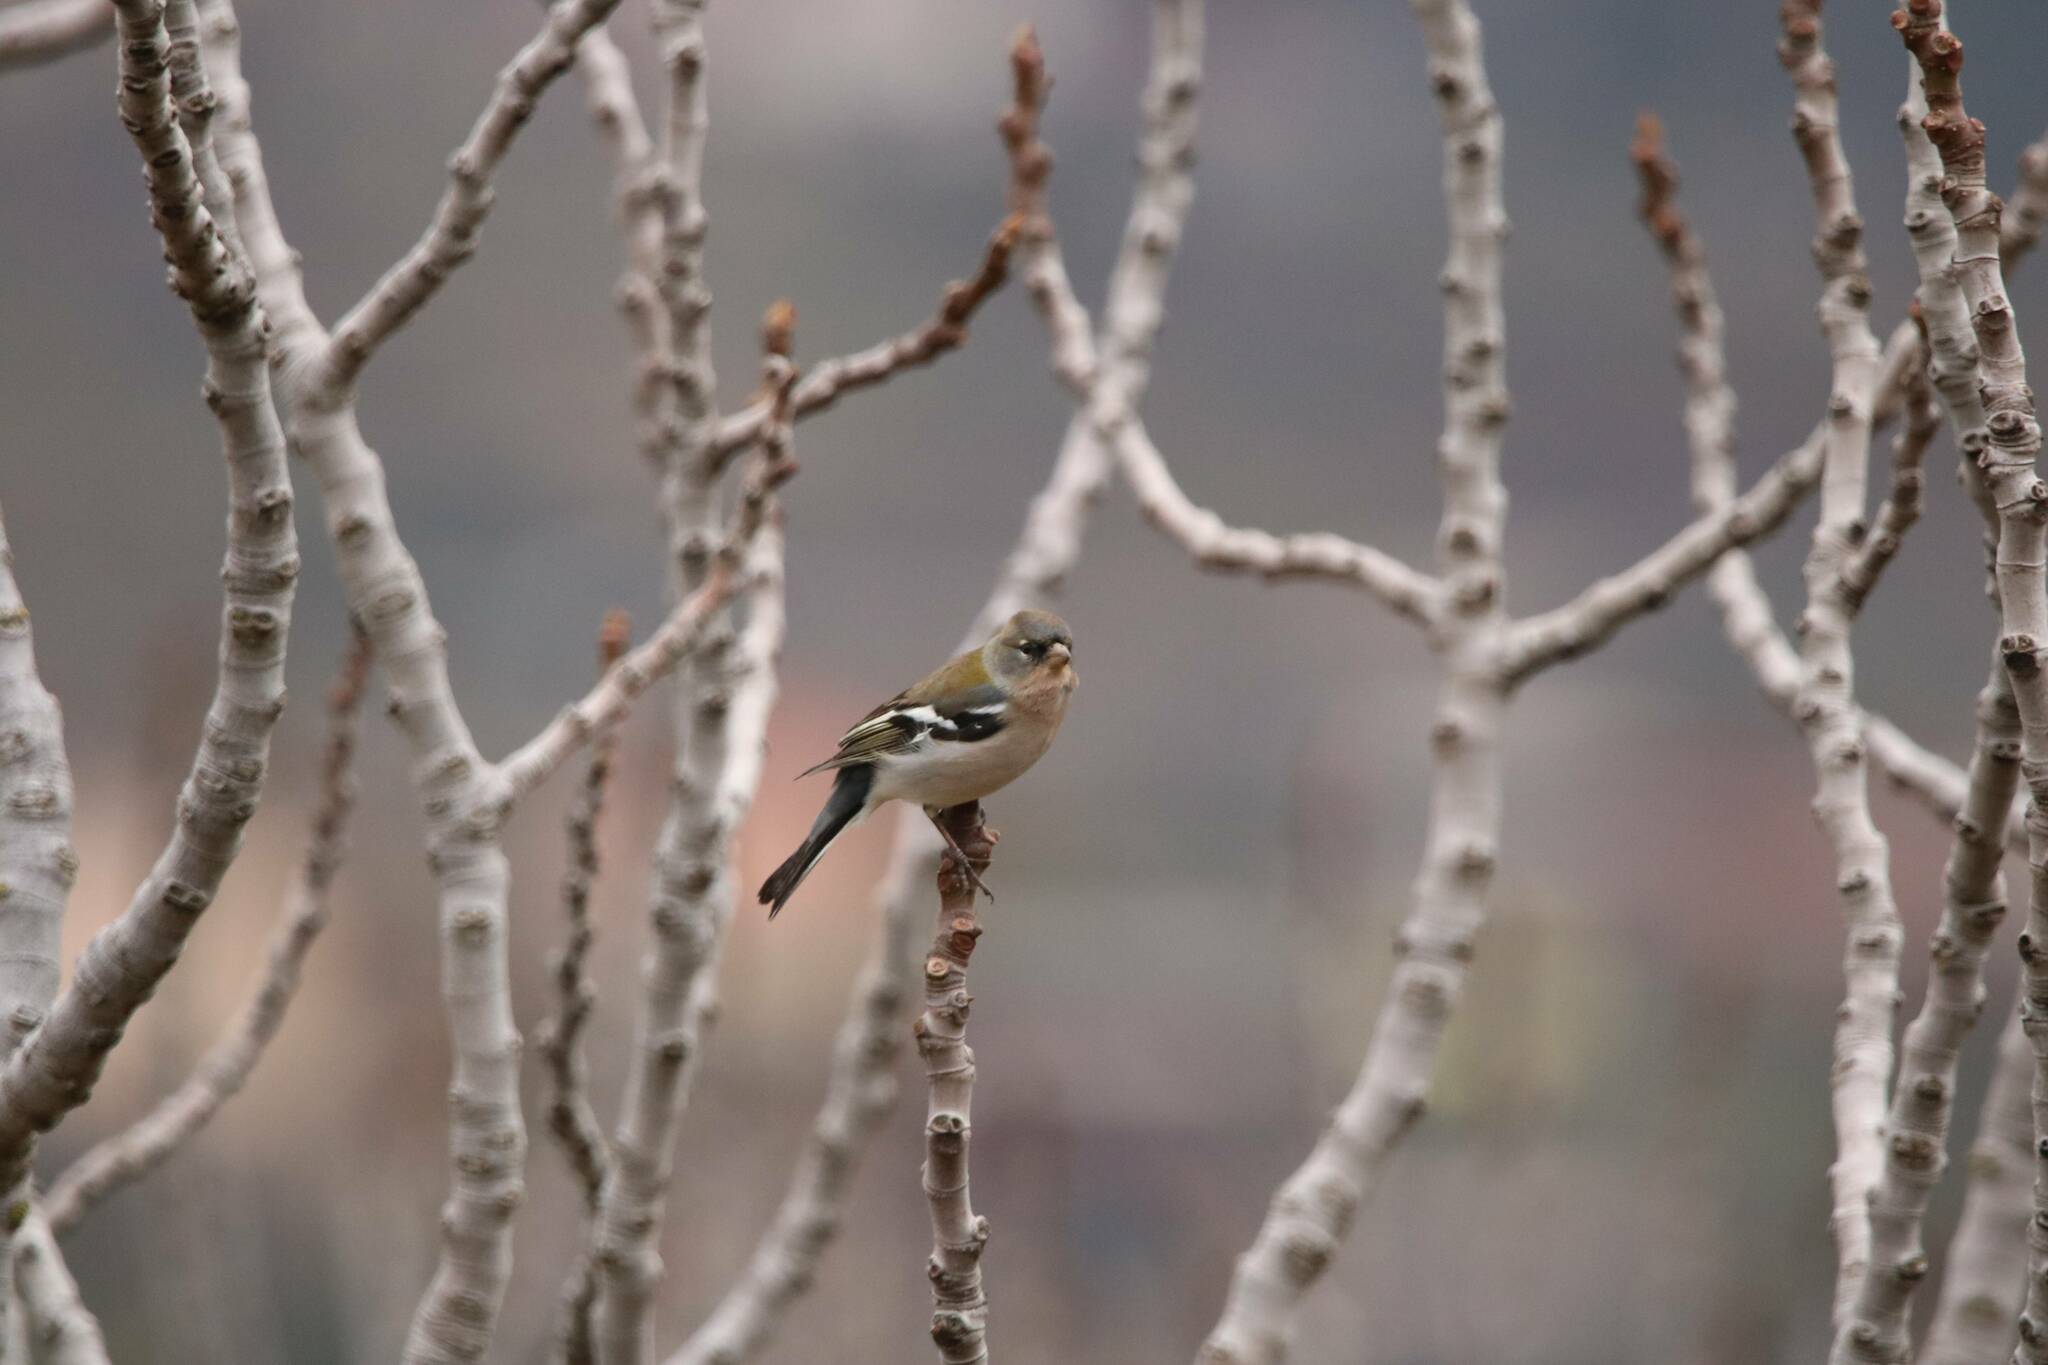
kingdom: Animalia
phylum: Chordata
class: Aves
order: Passeriformes
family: Fringillidae
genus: Fringilla
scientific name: Fringilla spodiogenys
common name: African chaffinch
